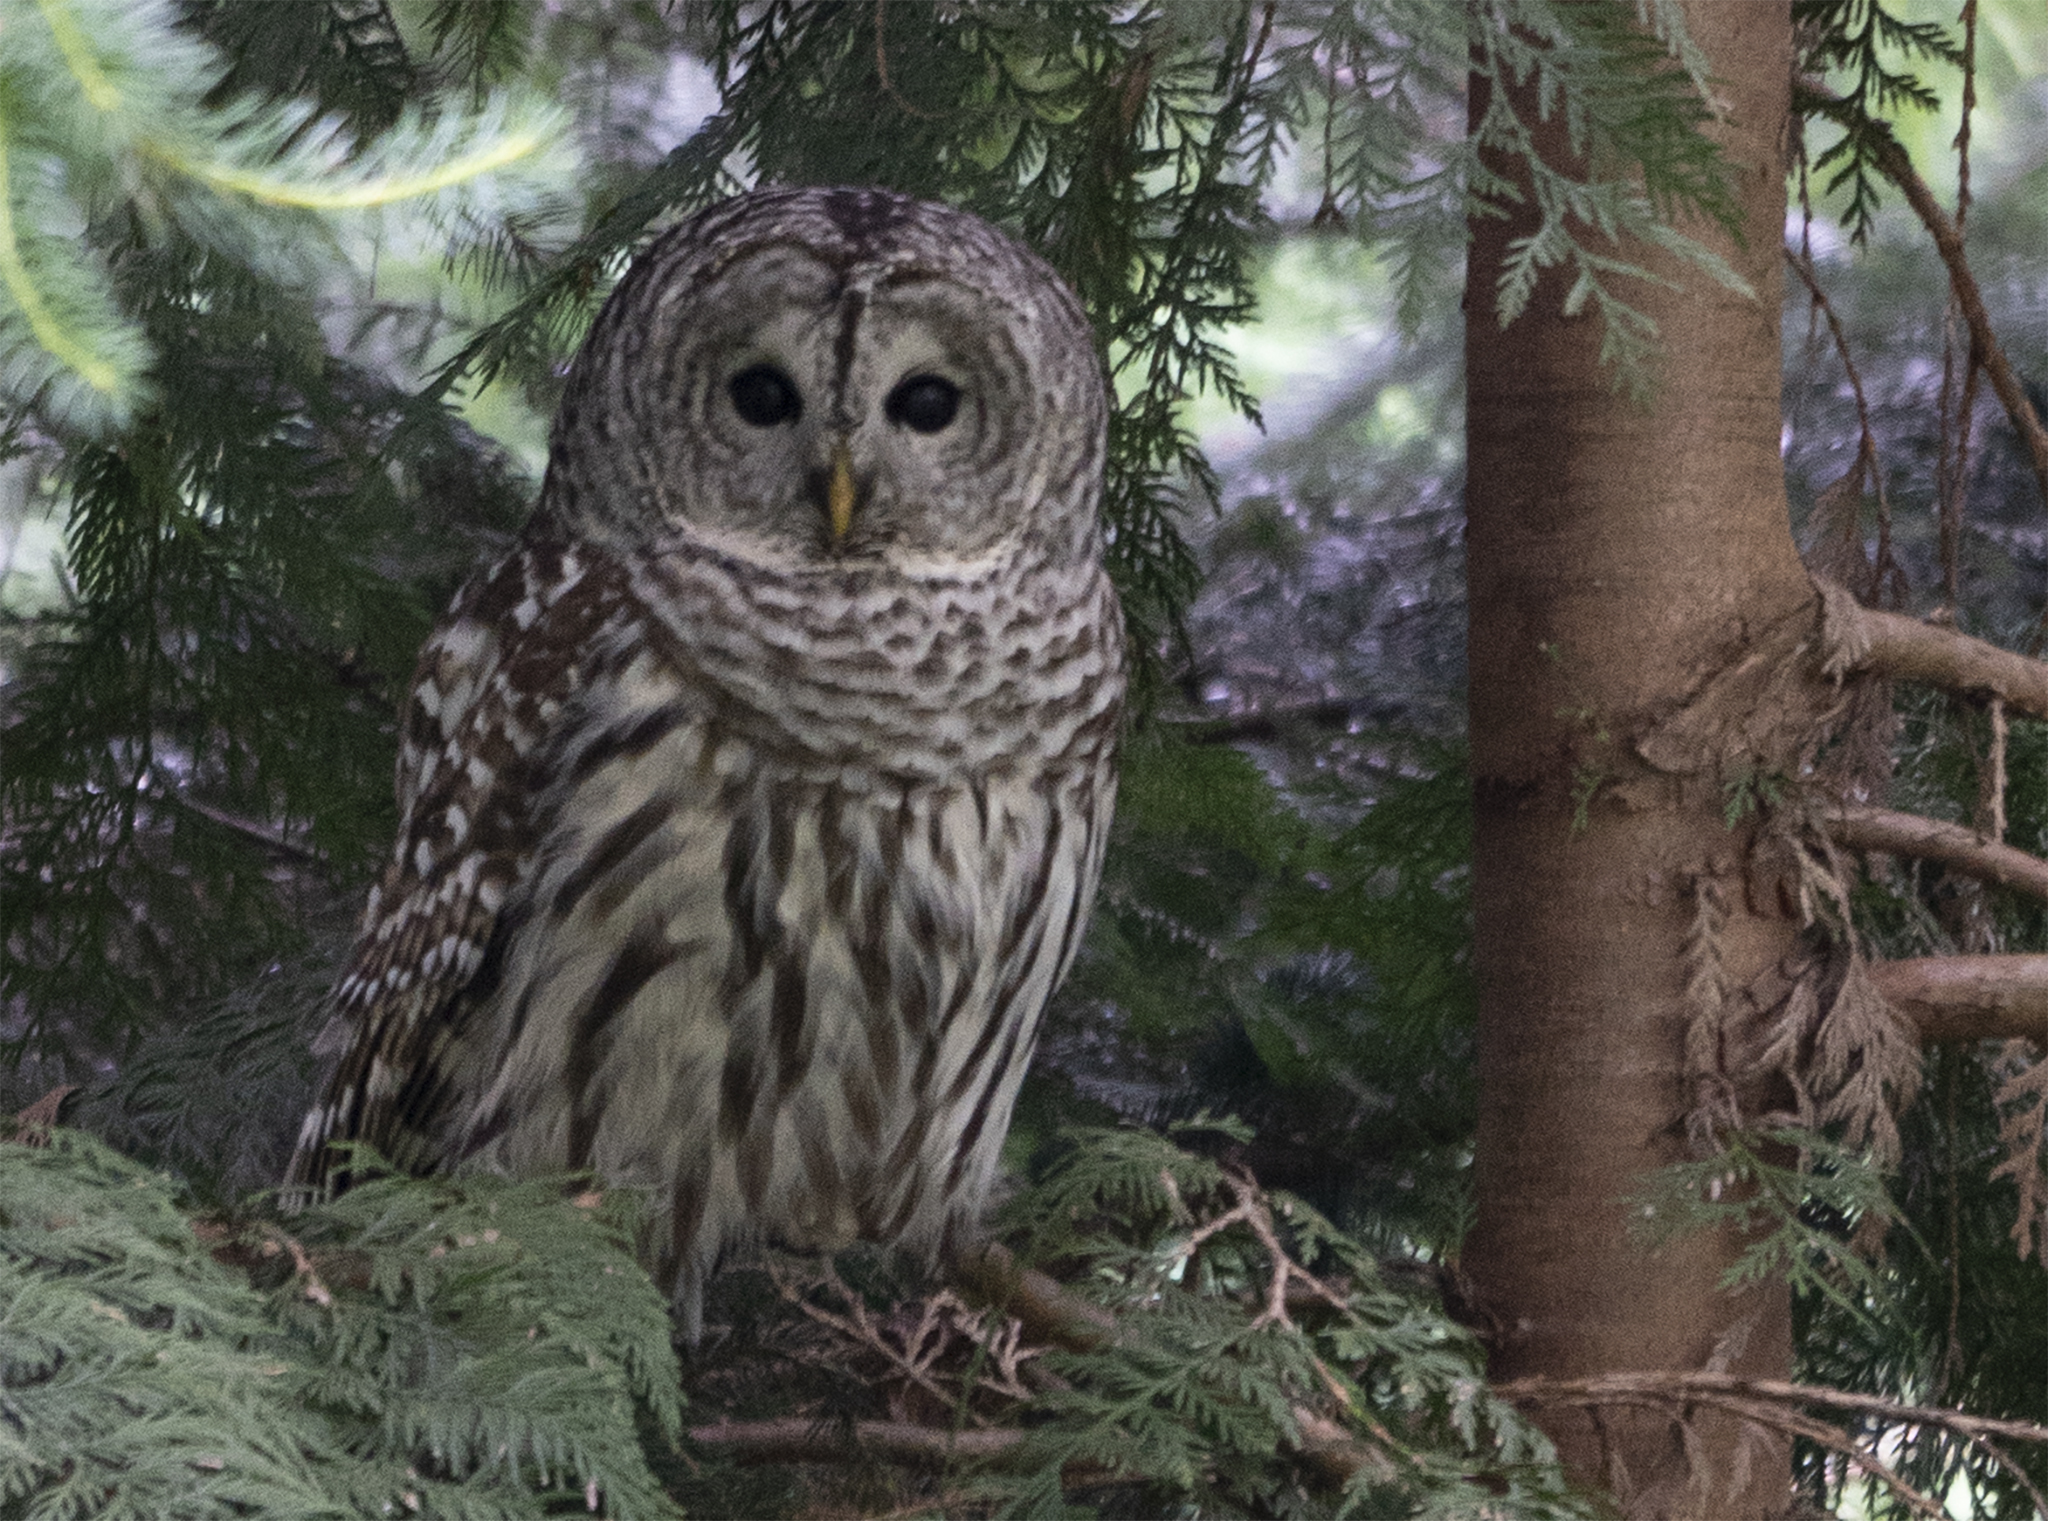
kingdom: Animalia
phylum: Chordata
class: Aves
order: Strigiformes
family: Strigidae
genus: Strix
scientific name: Strix varia
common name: Barred owl
